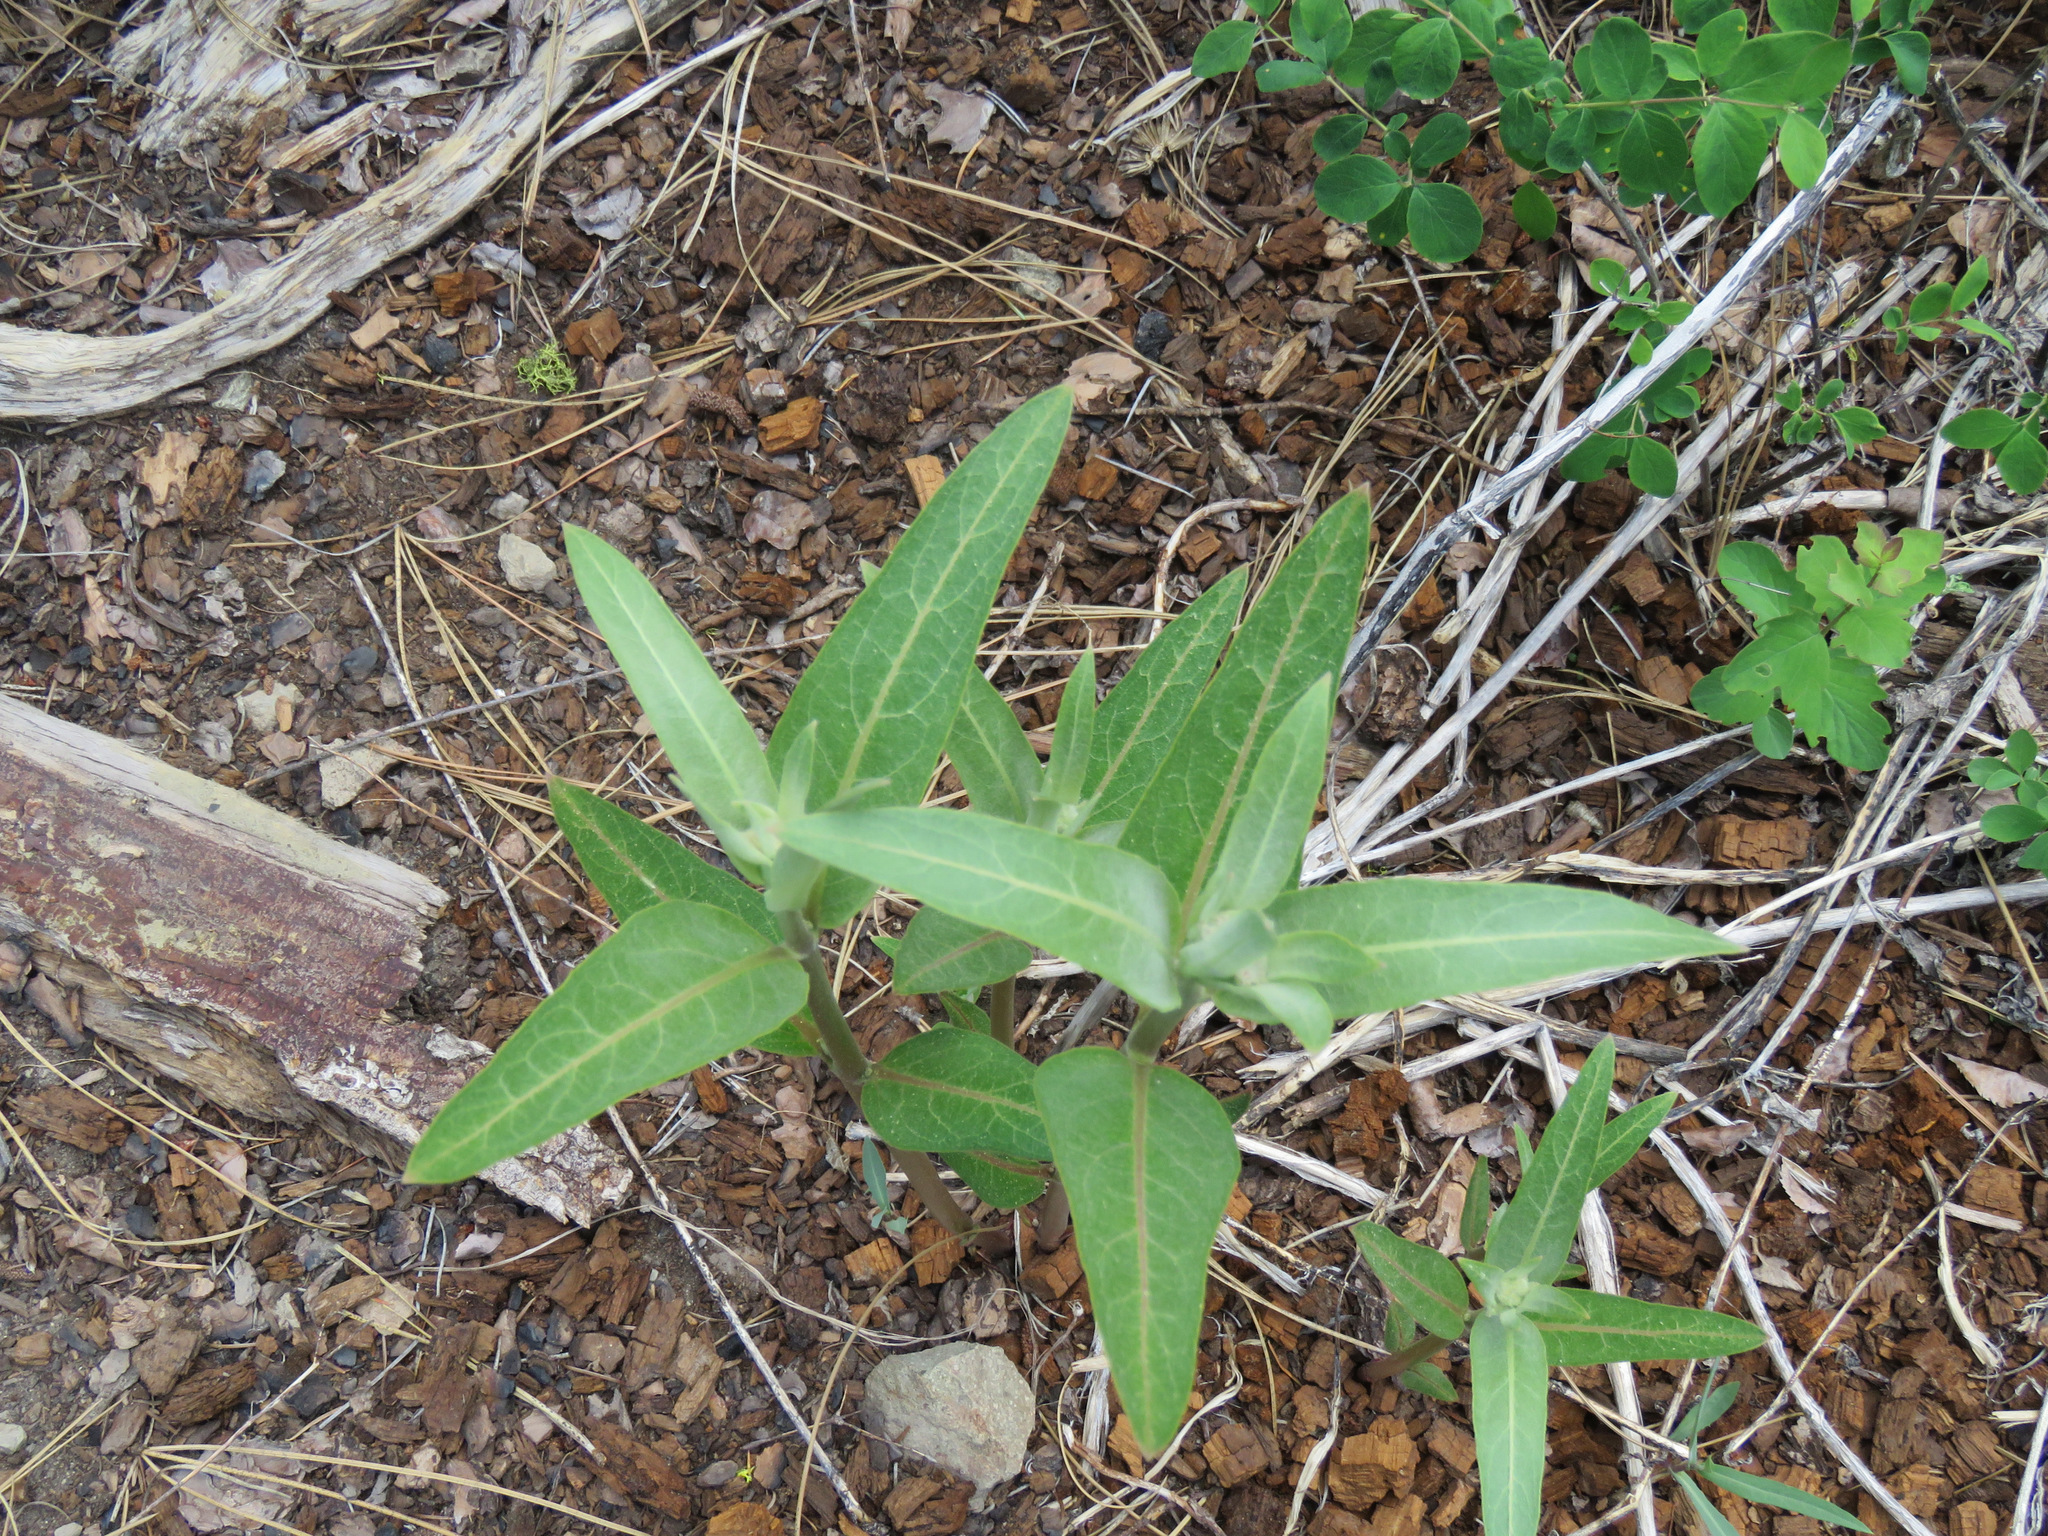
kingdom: Plantae
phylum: Tracheophyta
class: Magnoliopsida
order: Gentianales
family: Apocynaceae
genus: Asclepias
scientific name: Asclepias speciosa
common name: Showy milkweed
